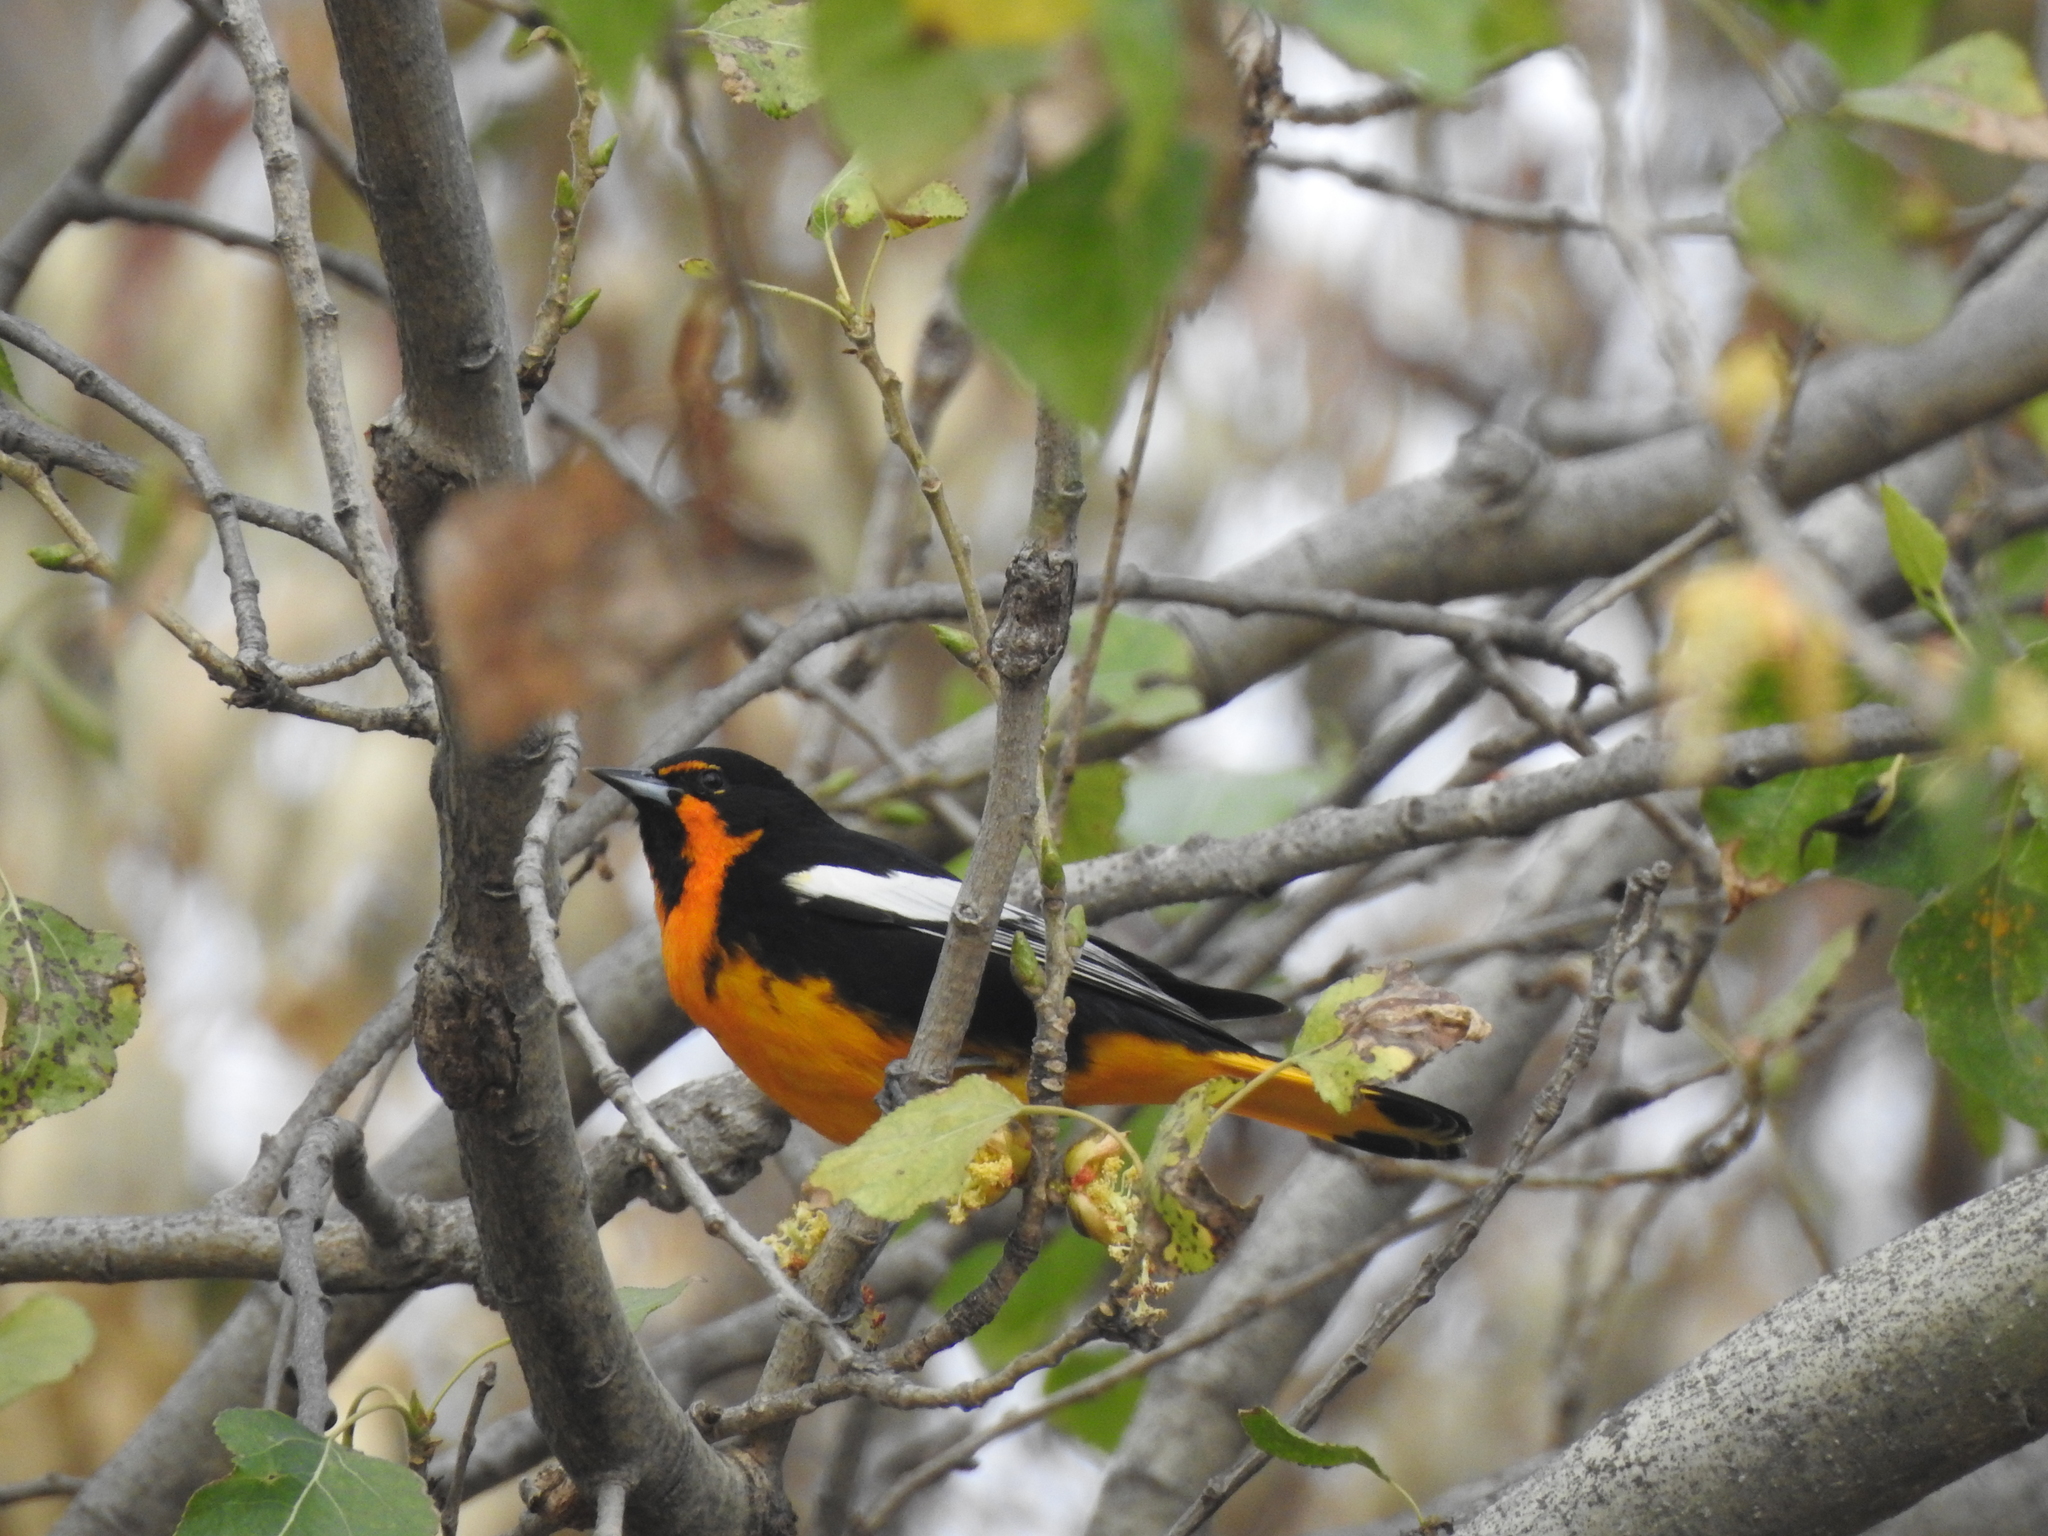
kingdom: Animalia
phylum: Chordata
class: Aves
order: Passeriformes
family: Icteridae
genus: Icterus
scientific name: Icterus abeillei
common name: Black-backed oriole
